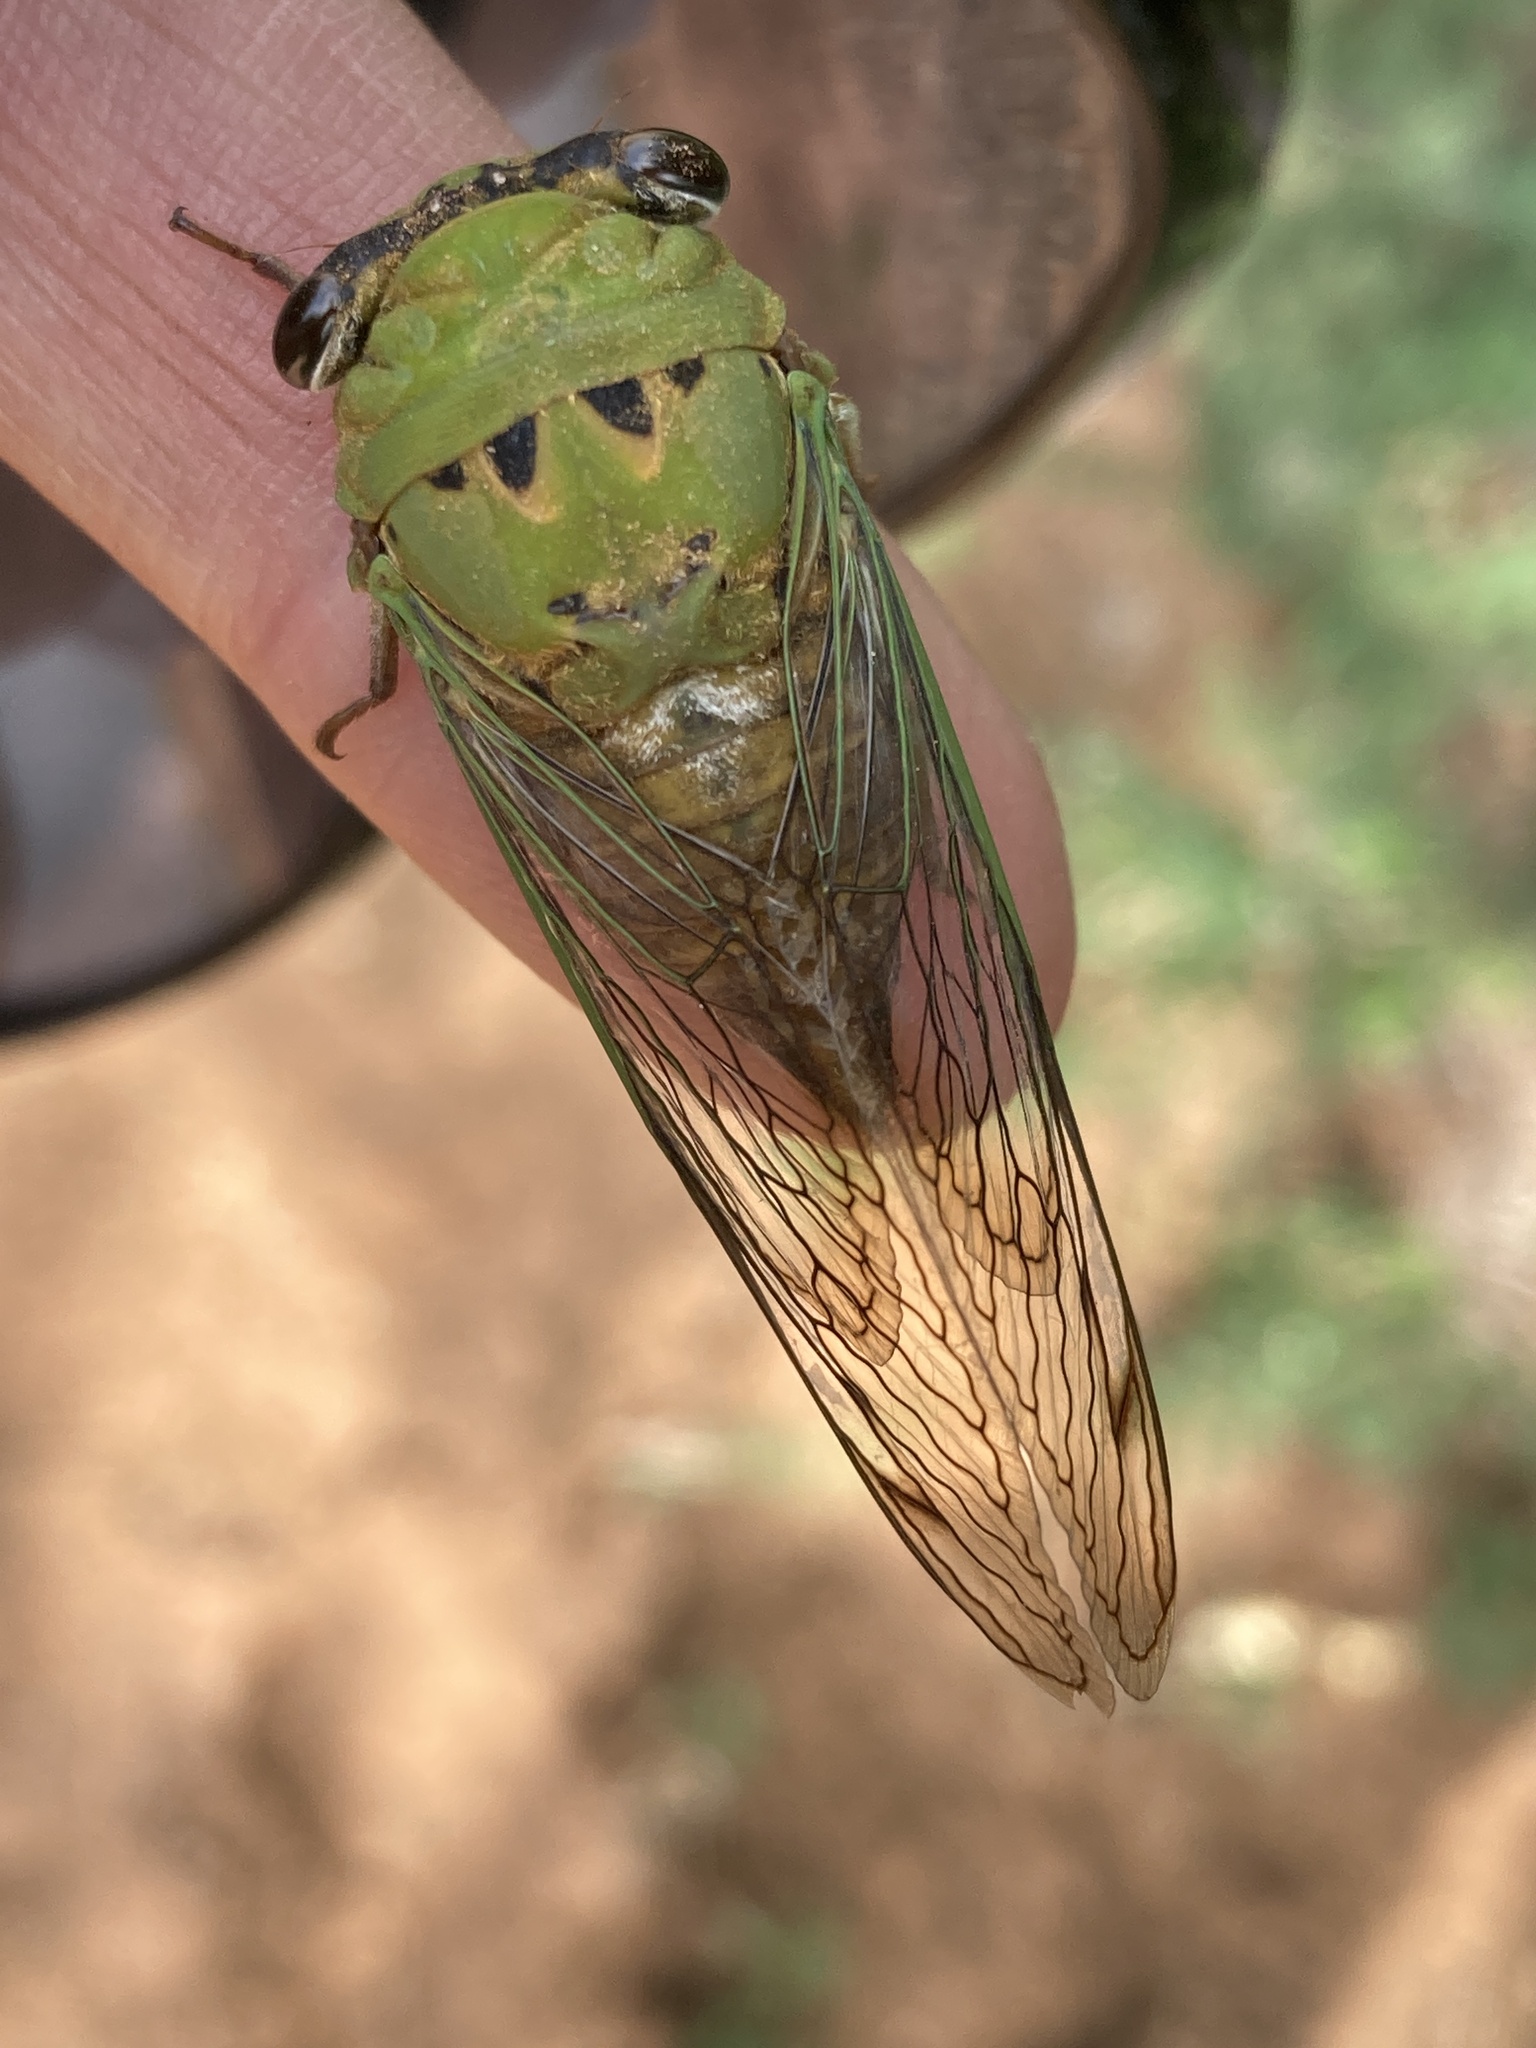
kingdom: Animalia
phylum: Arthropoda
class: Insecta
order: Hemiptera
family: Cicadidae
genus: Neotibicen
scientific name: Neotibicen superbus
